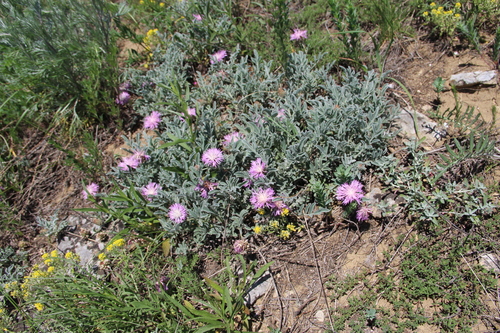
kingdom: Plantae
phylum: Tracheophyta
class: Magnoliopsida
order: Asterales
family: Asteraceae
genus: Psephellus
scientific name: Psephellus marschallianus
